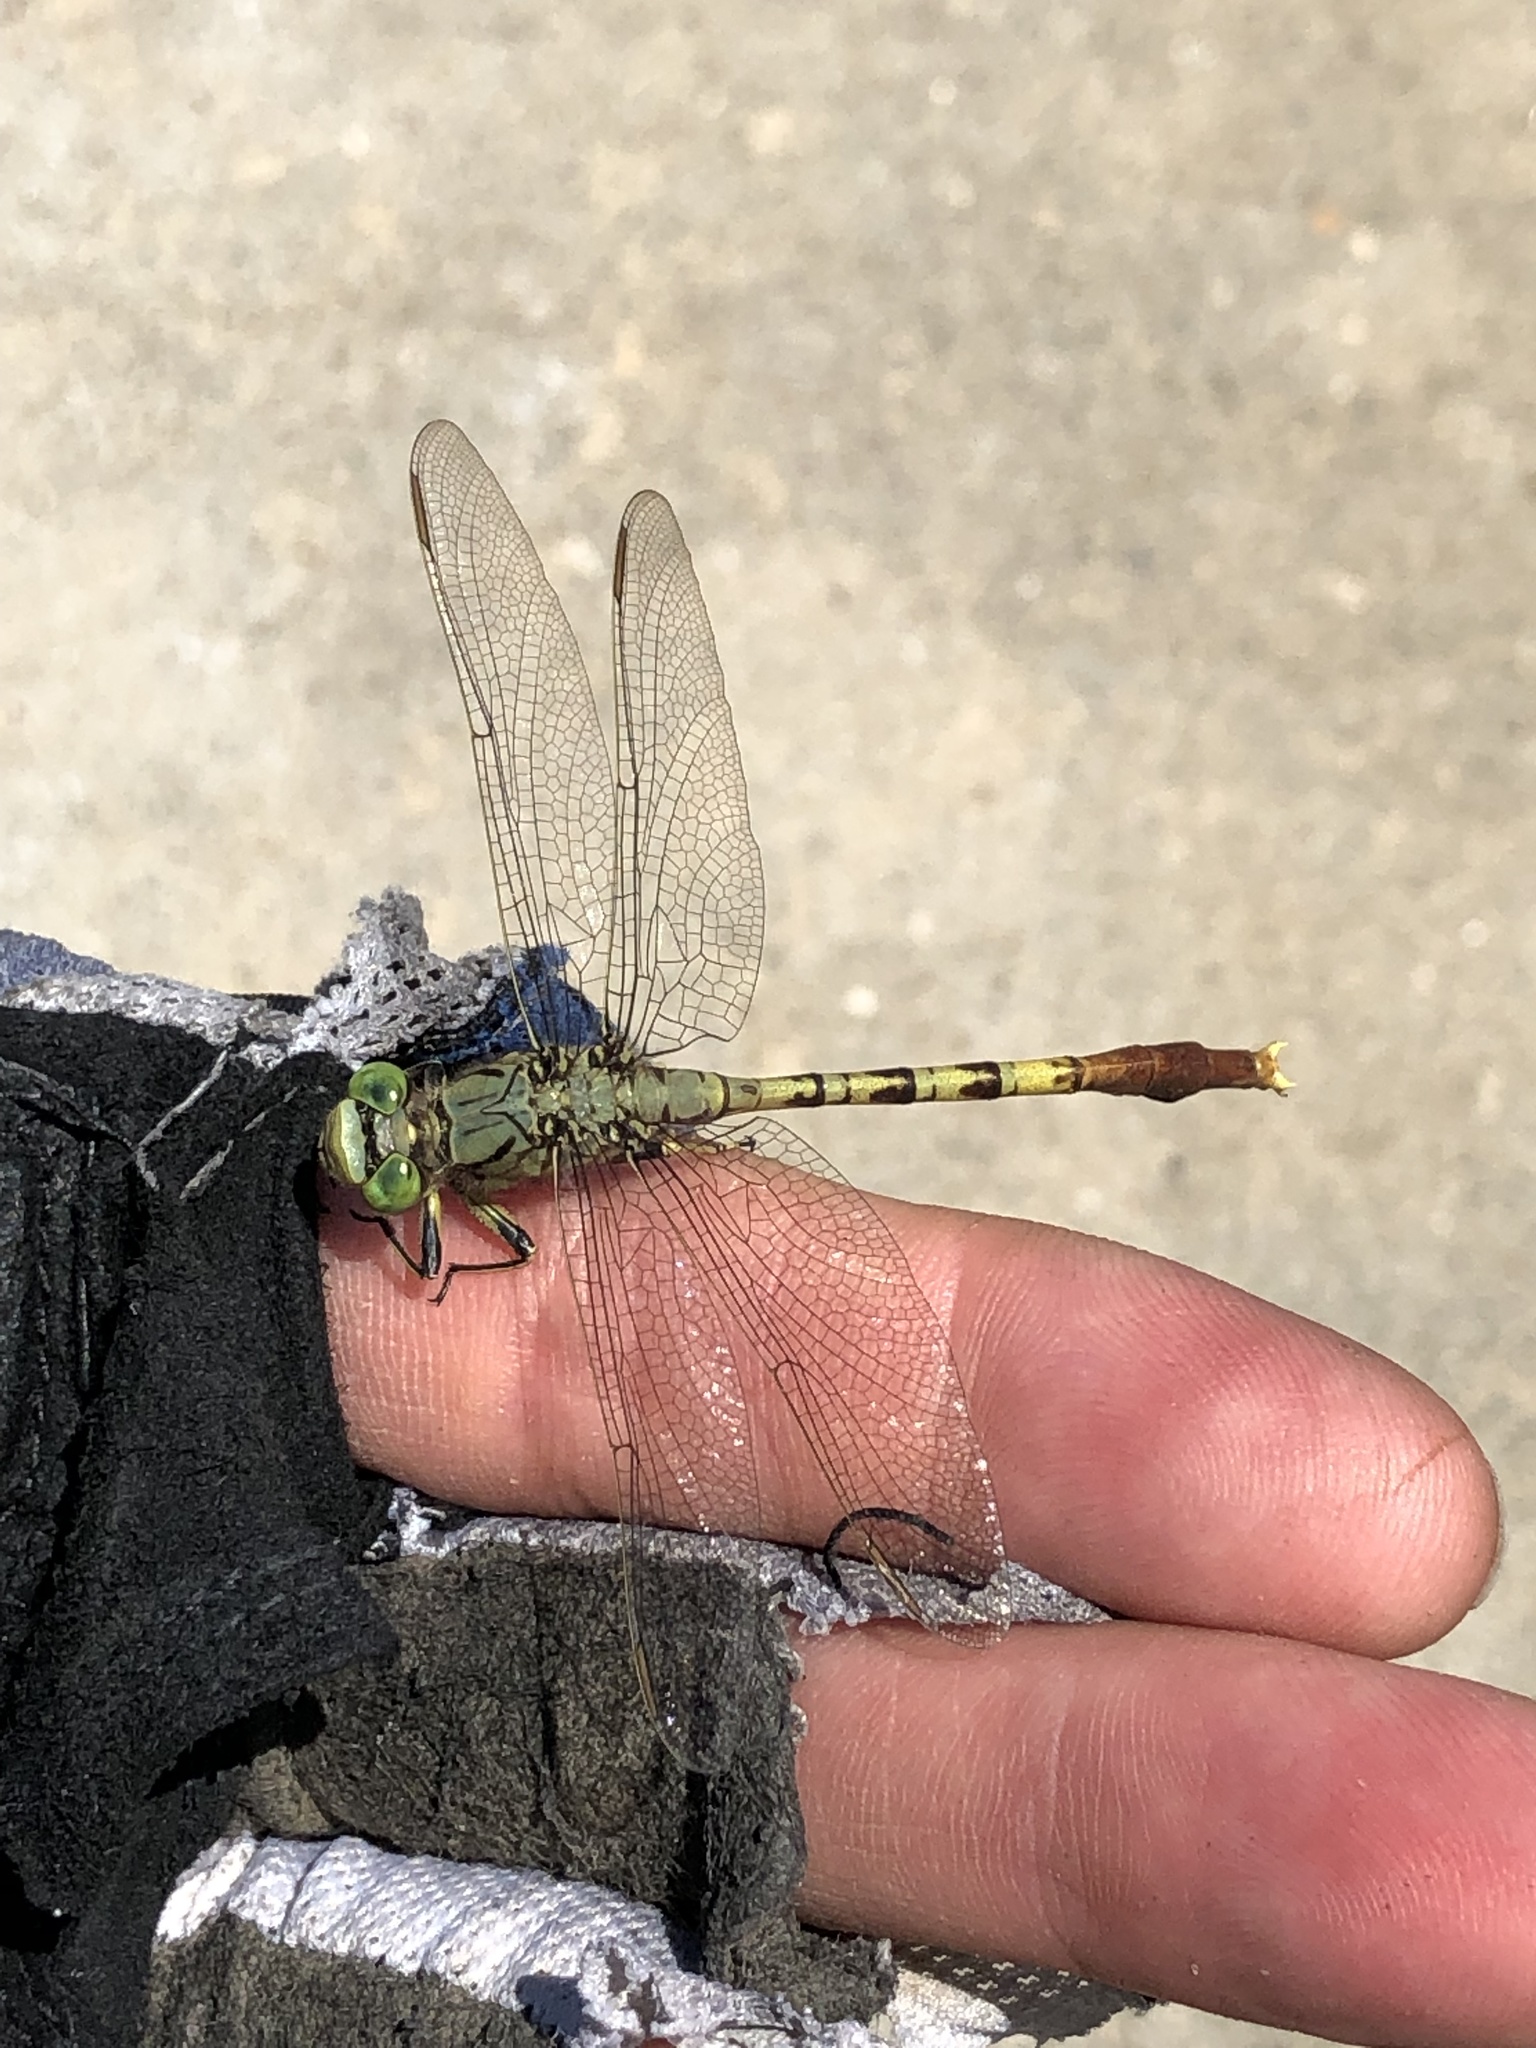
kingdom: Animalia
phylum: Arthropoda
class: Insecta
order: Odonata
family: Gomphidae
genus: Arigomphus
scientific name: Arigomphus submedianus
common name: Jade clubtail
